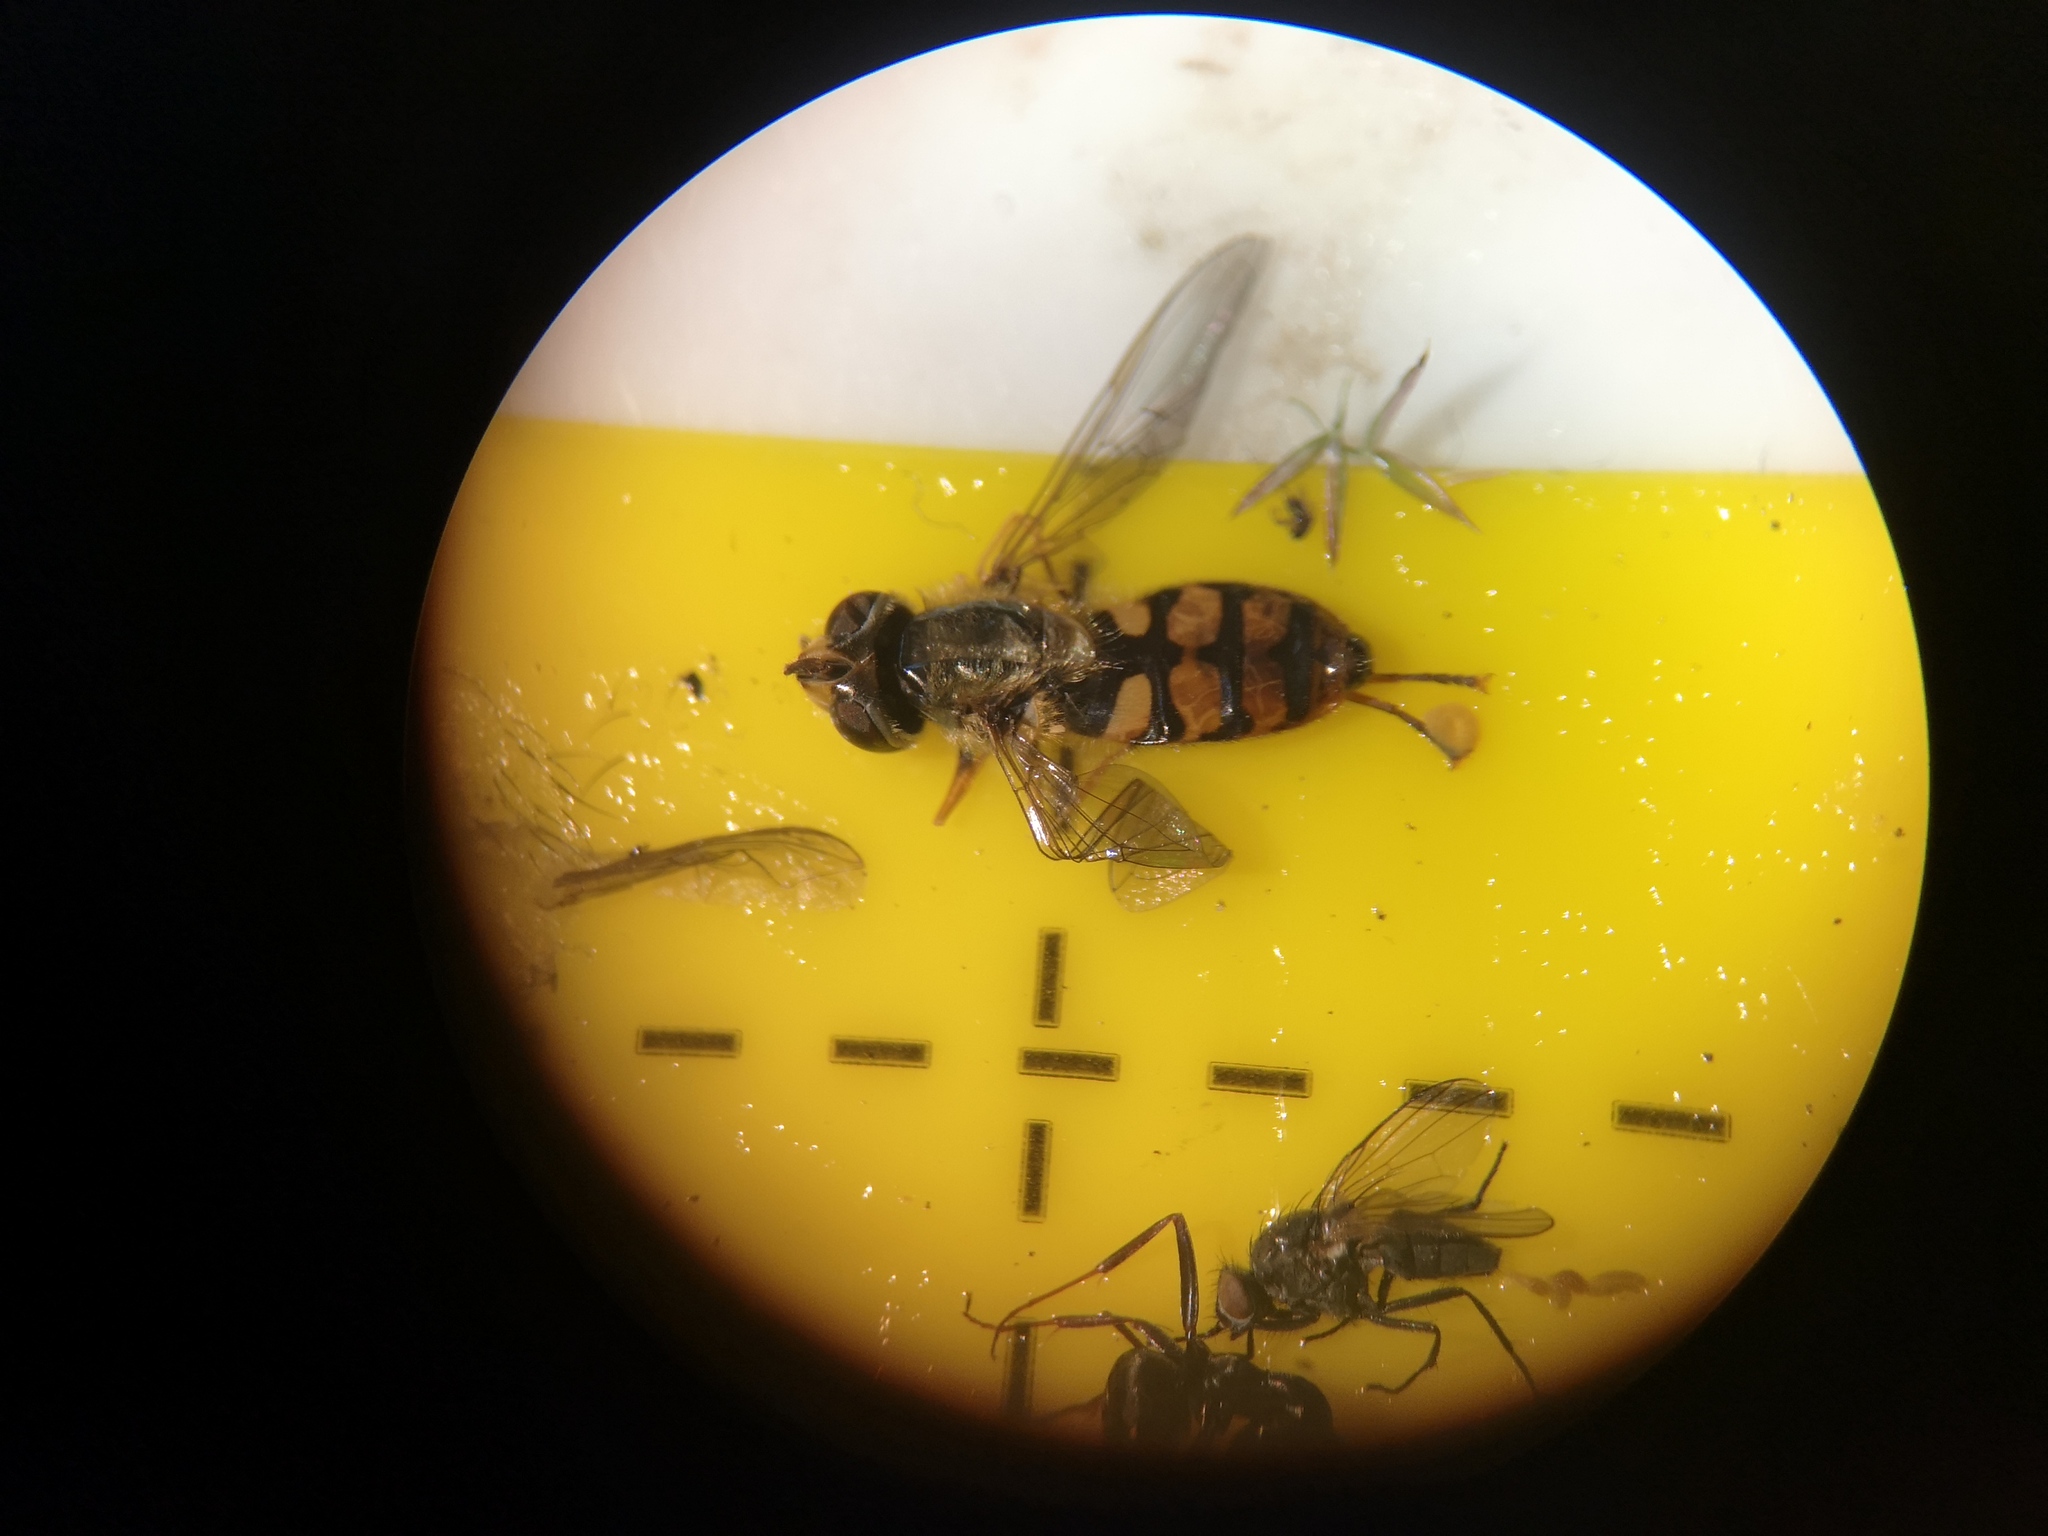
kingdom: Animalia
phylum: Arthropoda
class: Insecta
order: Diptera
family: Syrphidae
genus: Eupeodes
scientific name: Eupeodes corollae
